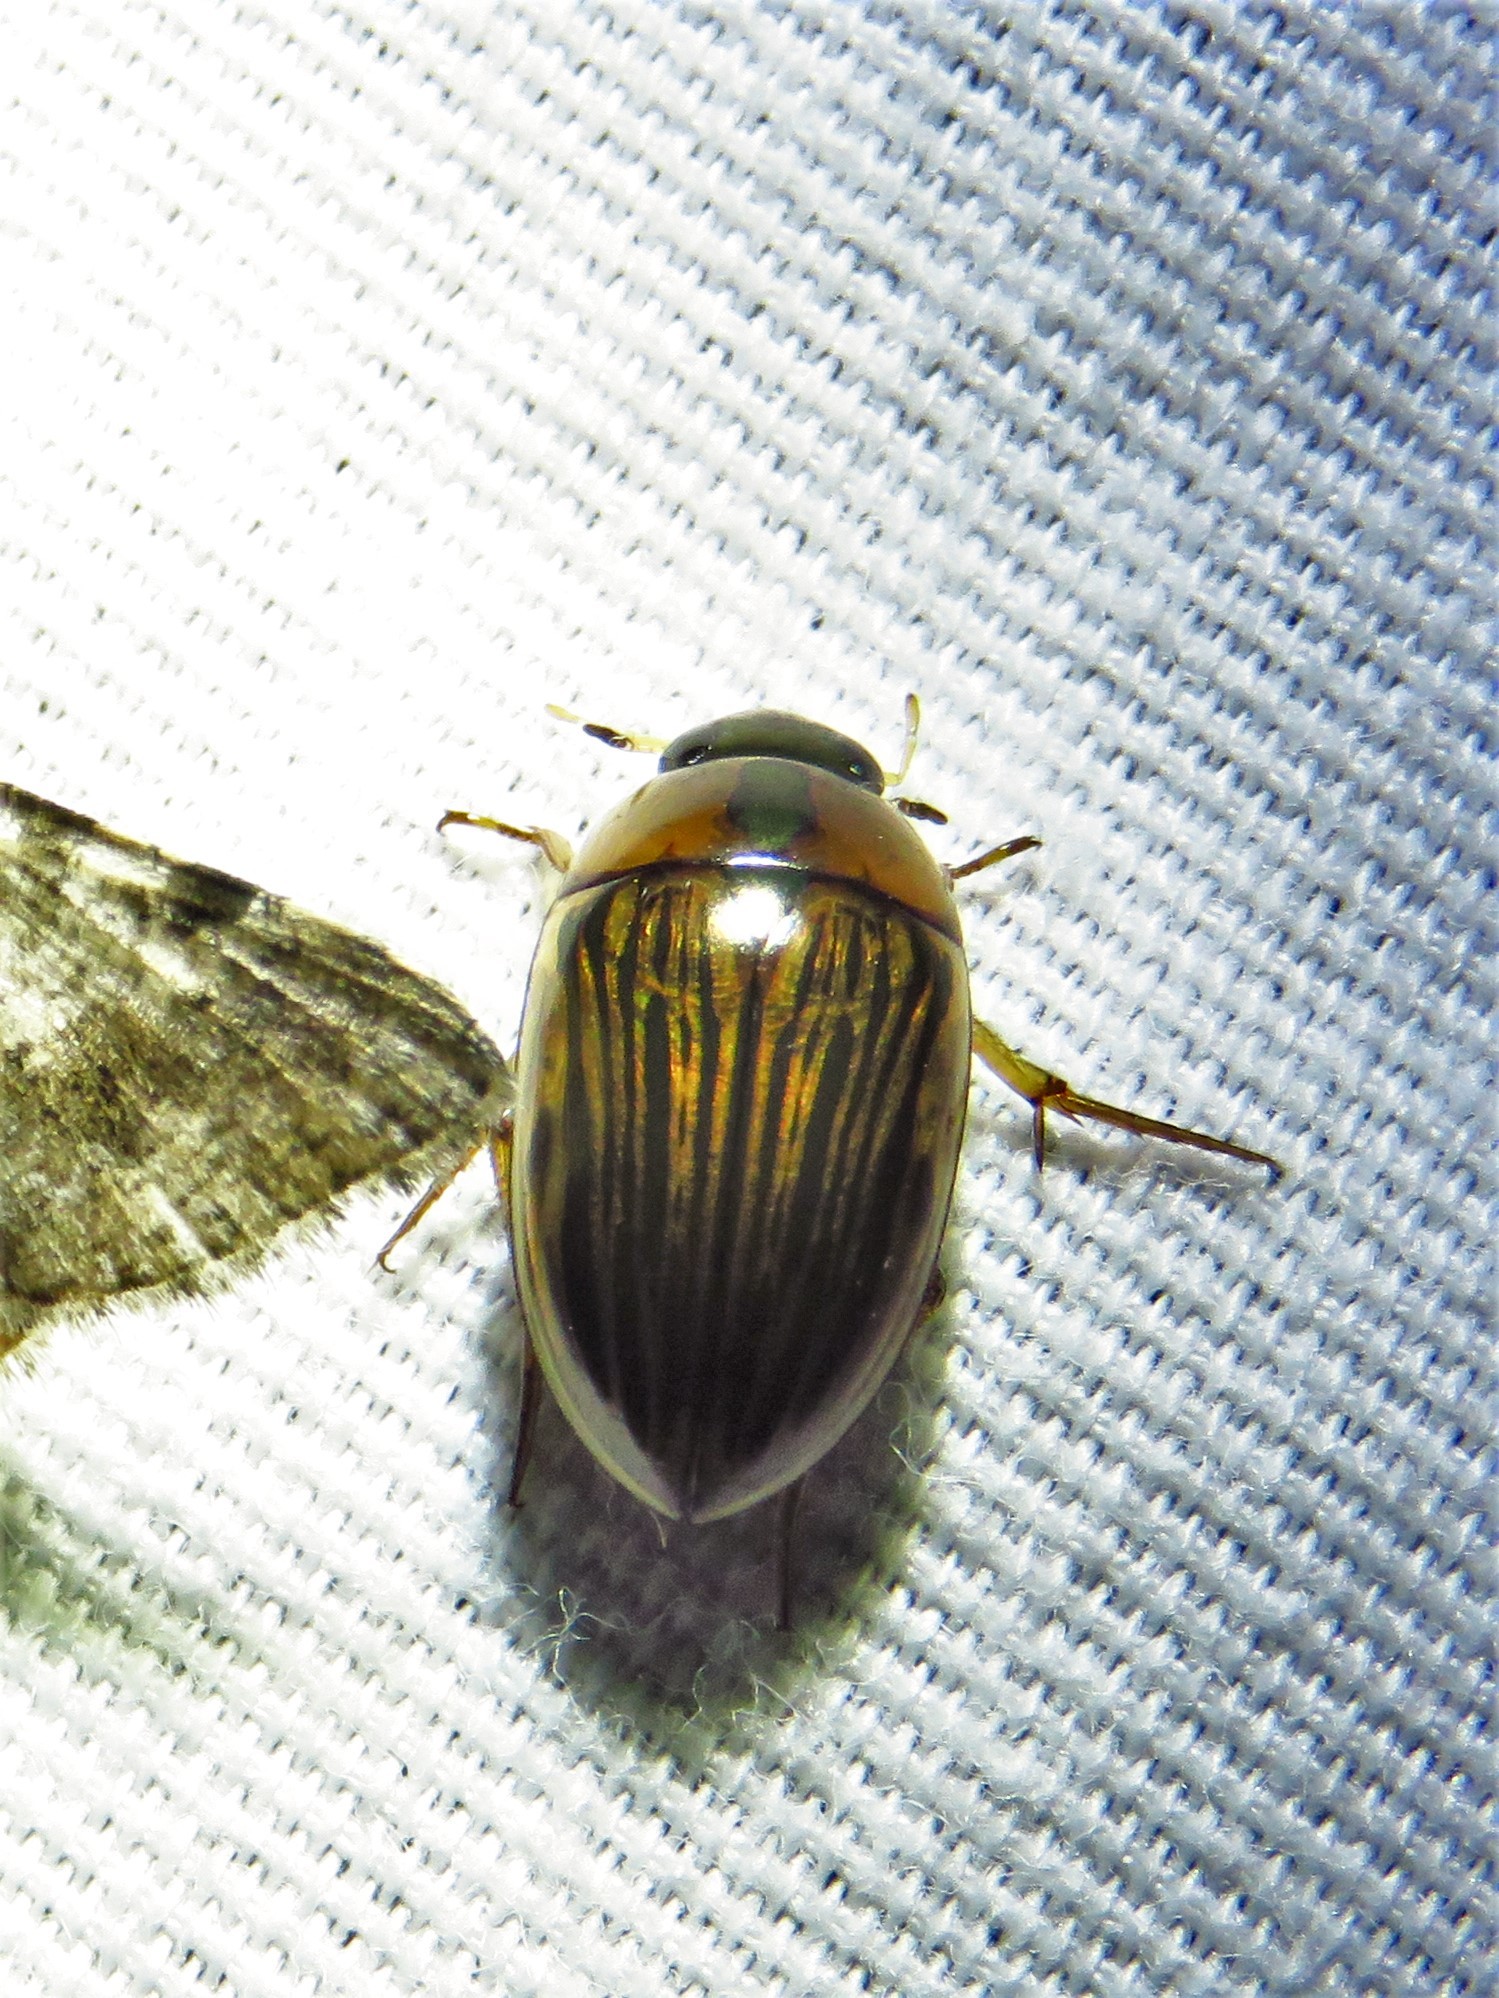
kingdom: Animalia
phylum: Arthropoda
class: Insecta
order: Coleoptera
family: Hydrophilidae
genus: Tropisternus
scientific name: Tropisternus collaris
